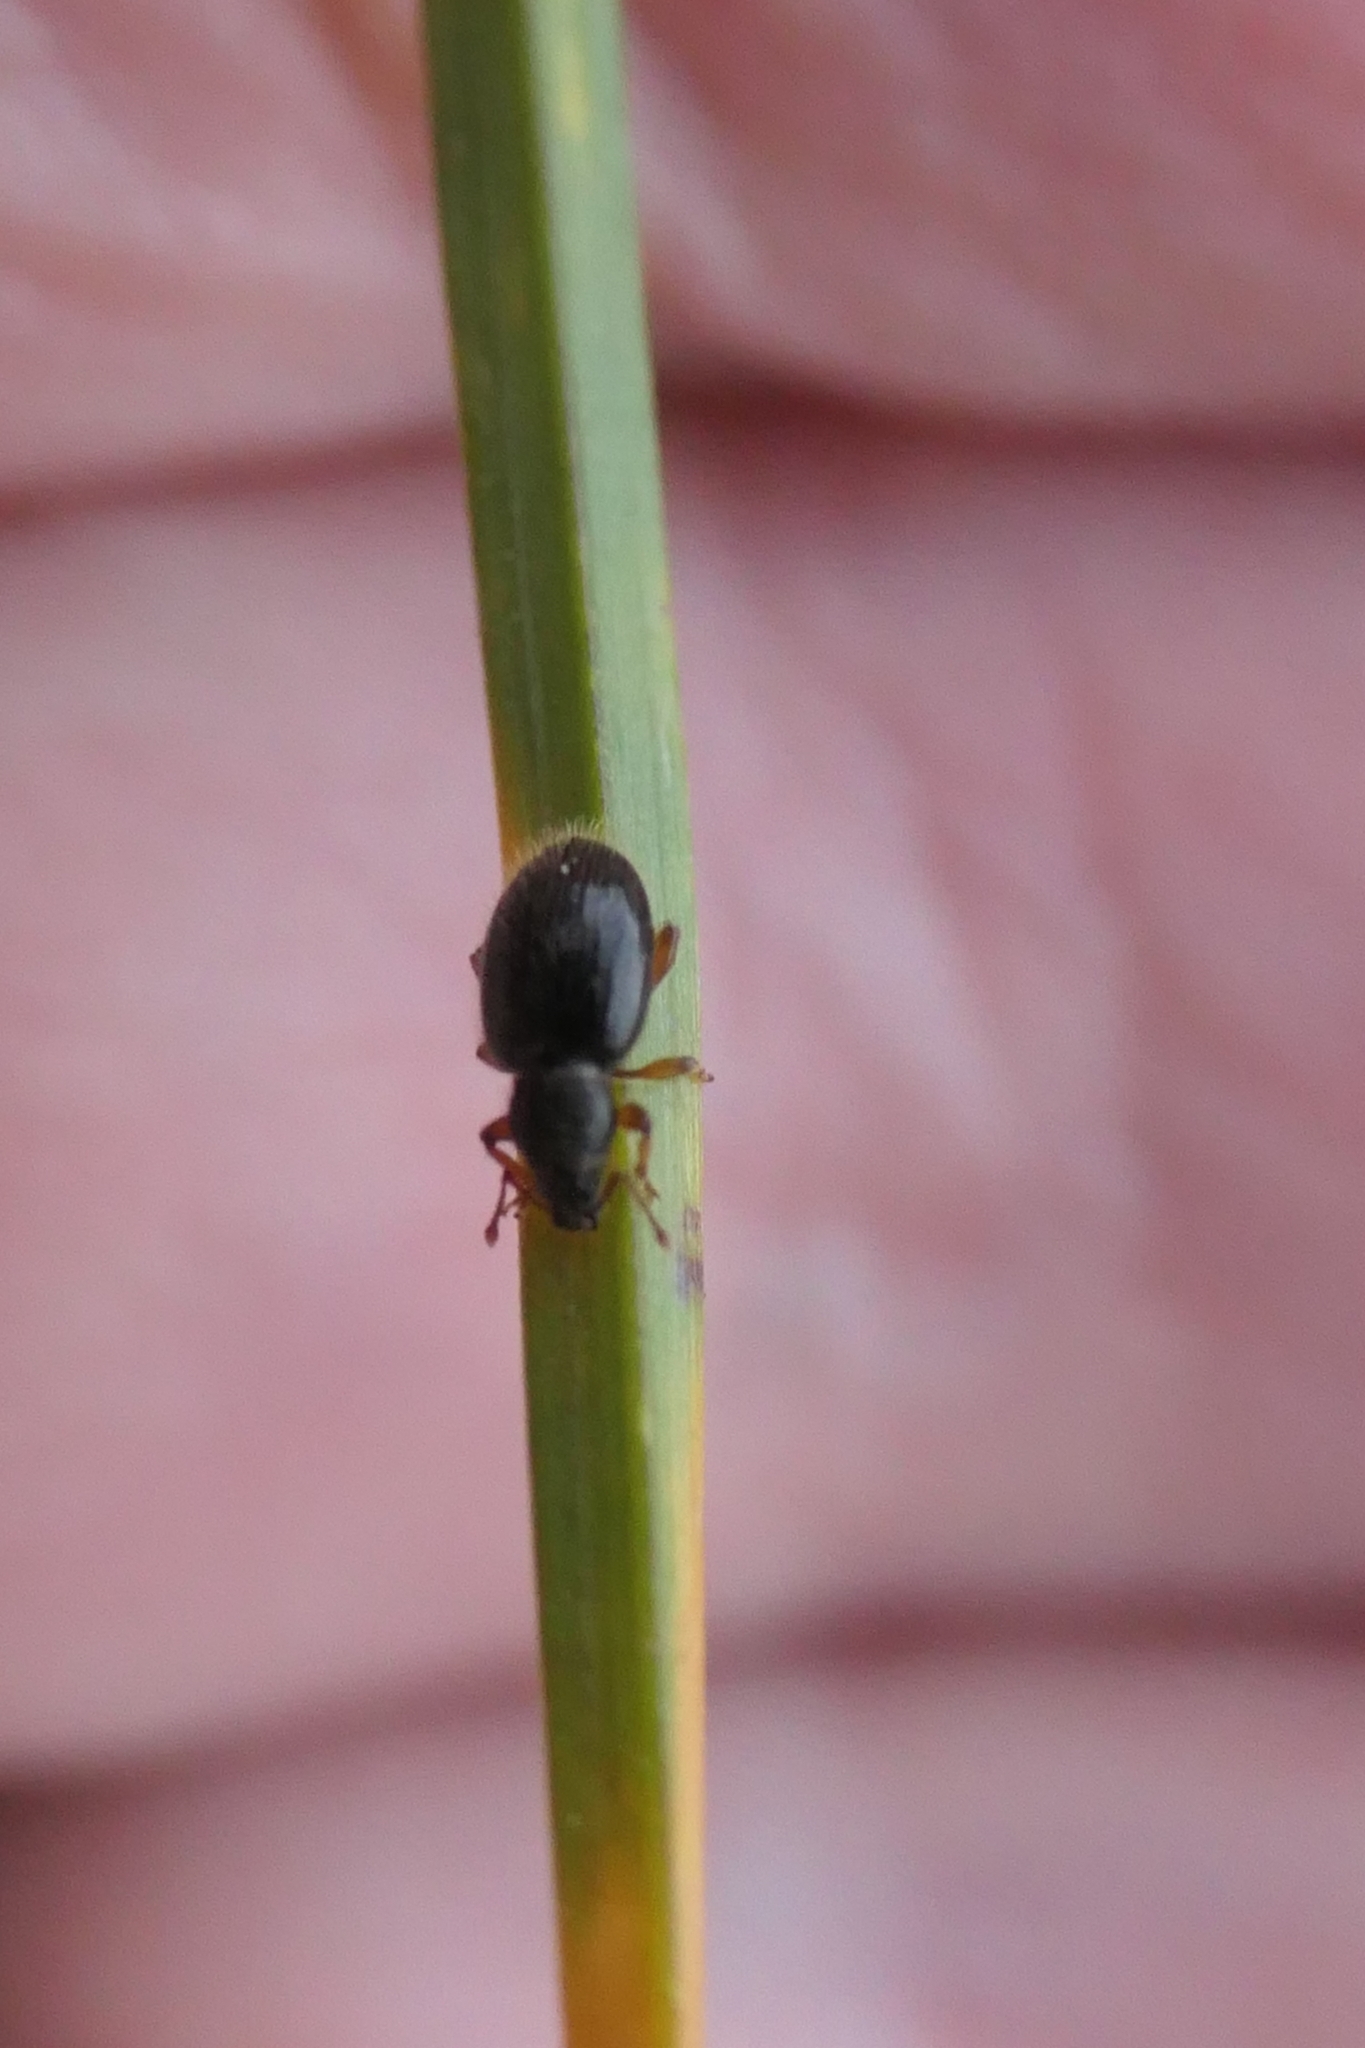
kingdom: Animalia
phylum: Arthropoda
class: Insecta
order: Coleoptera
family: Curculionidae
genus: Exomias
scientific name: Exomias pellucidus
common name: Hairy spider weevil
